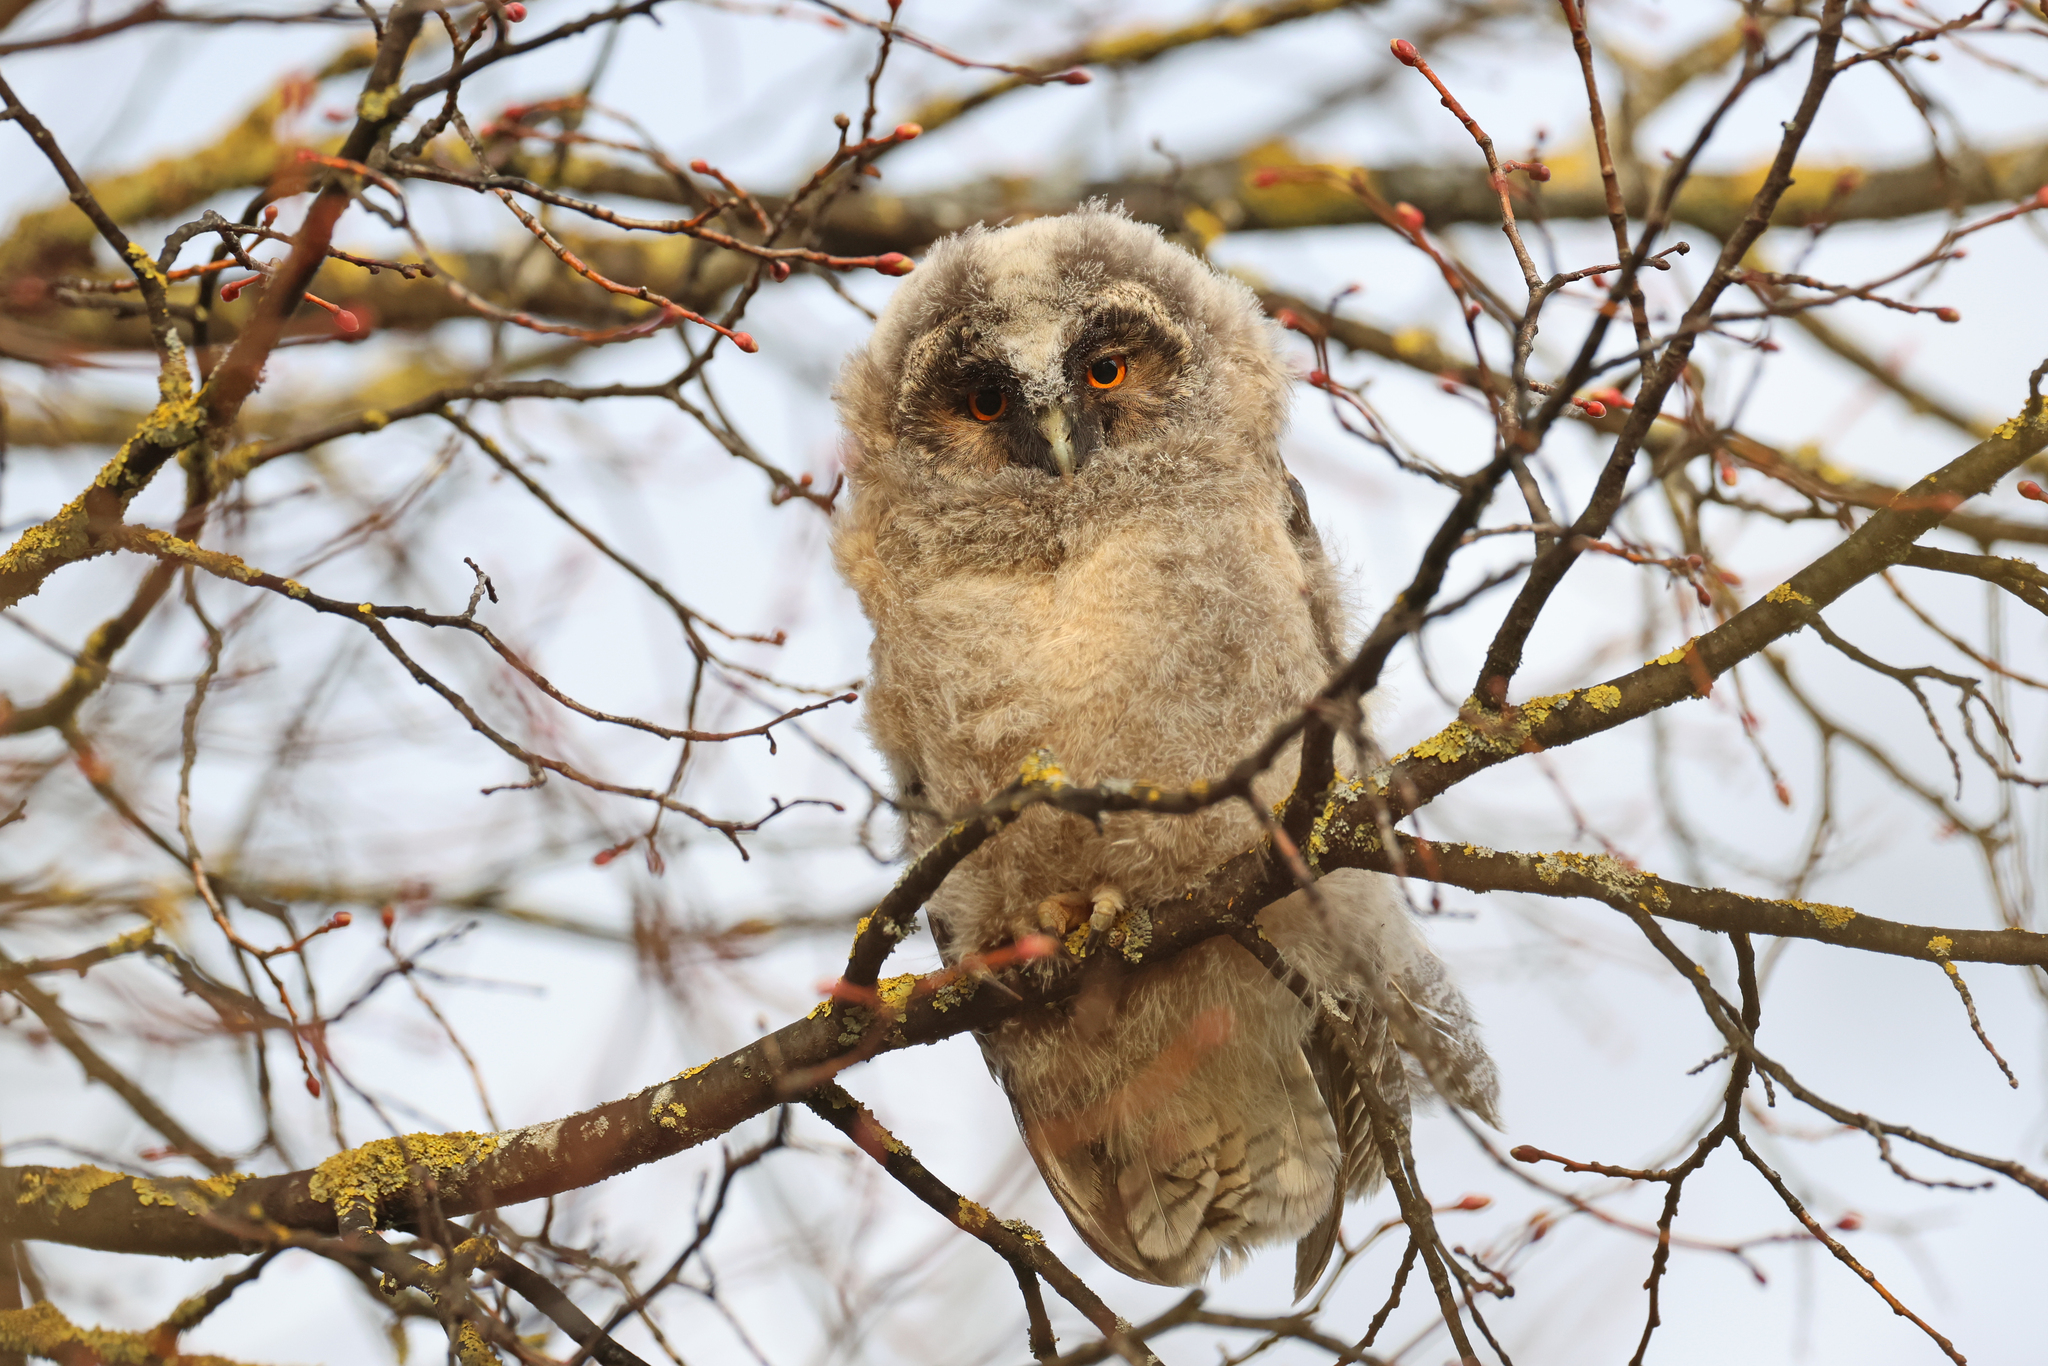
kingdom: Animalia
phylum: Chordata
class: Aves
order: Strigiformes
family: Strigidae
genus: Asio
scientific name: Asio otus
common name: Long-eared owl
